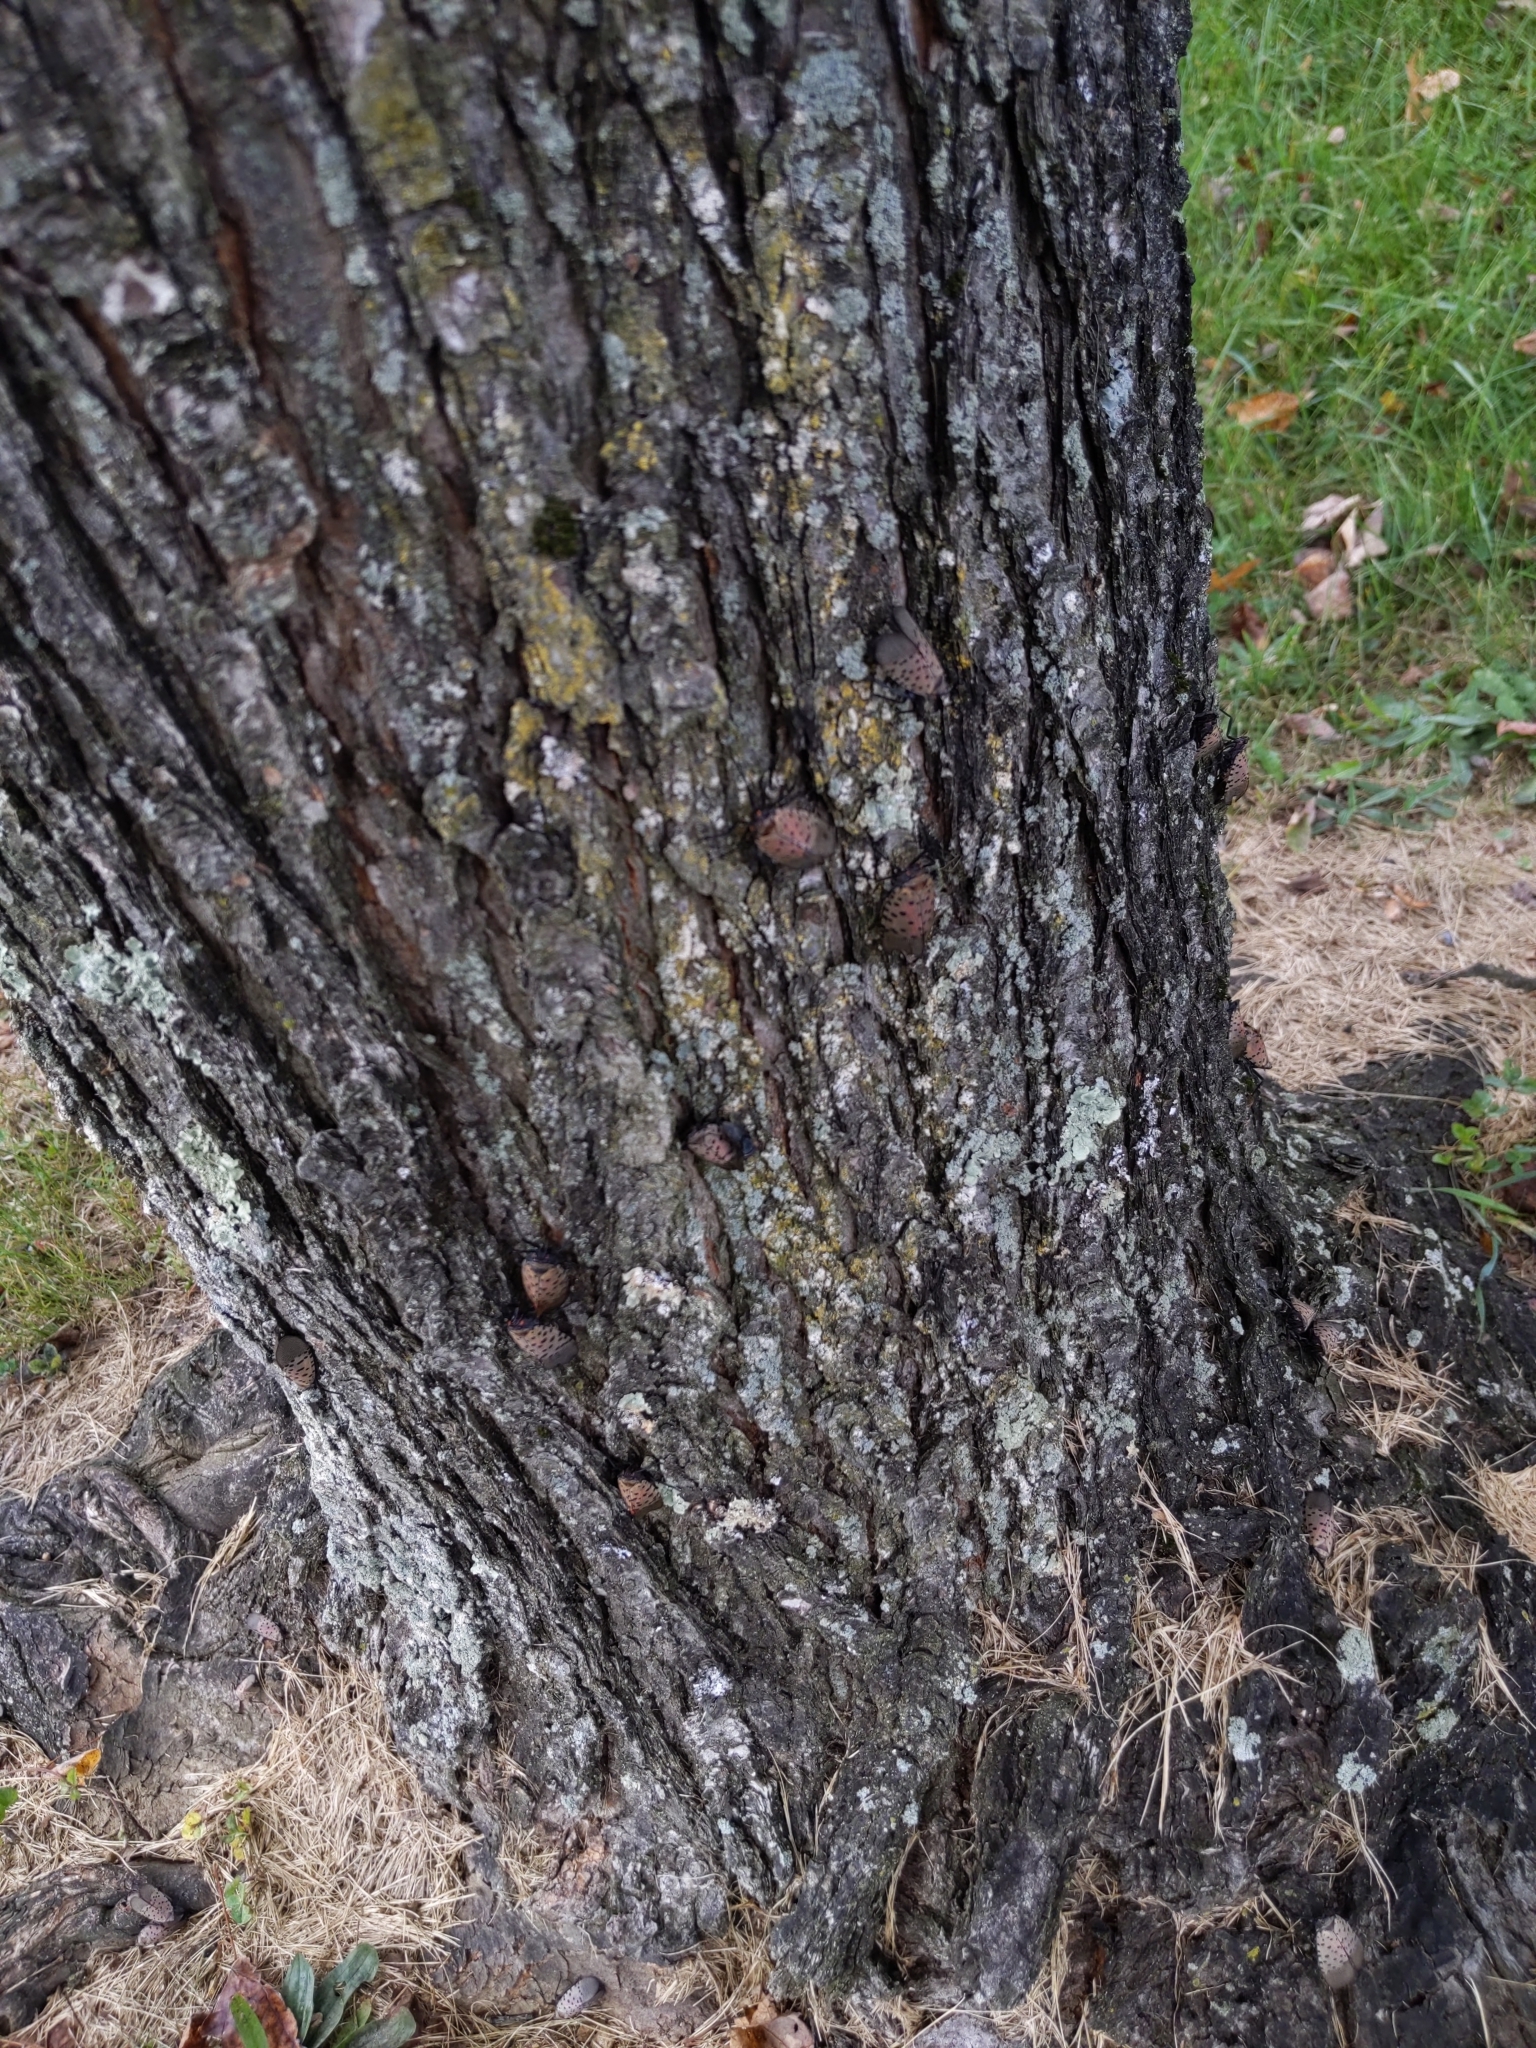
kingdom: Animalia
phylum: Arthropoda
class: Insecta
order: Hemiptera
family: Fulgoridae
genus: Lycorma
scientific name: Lycorma delicatula
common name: Spotted lanternfly
